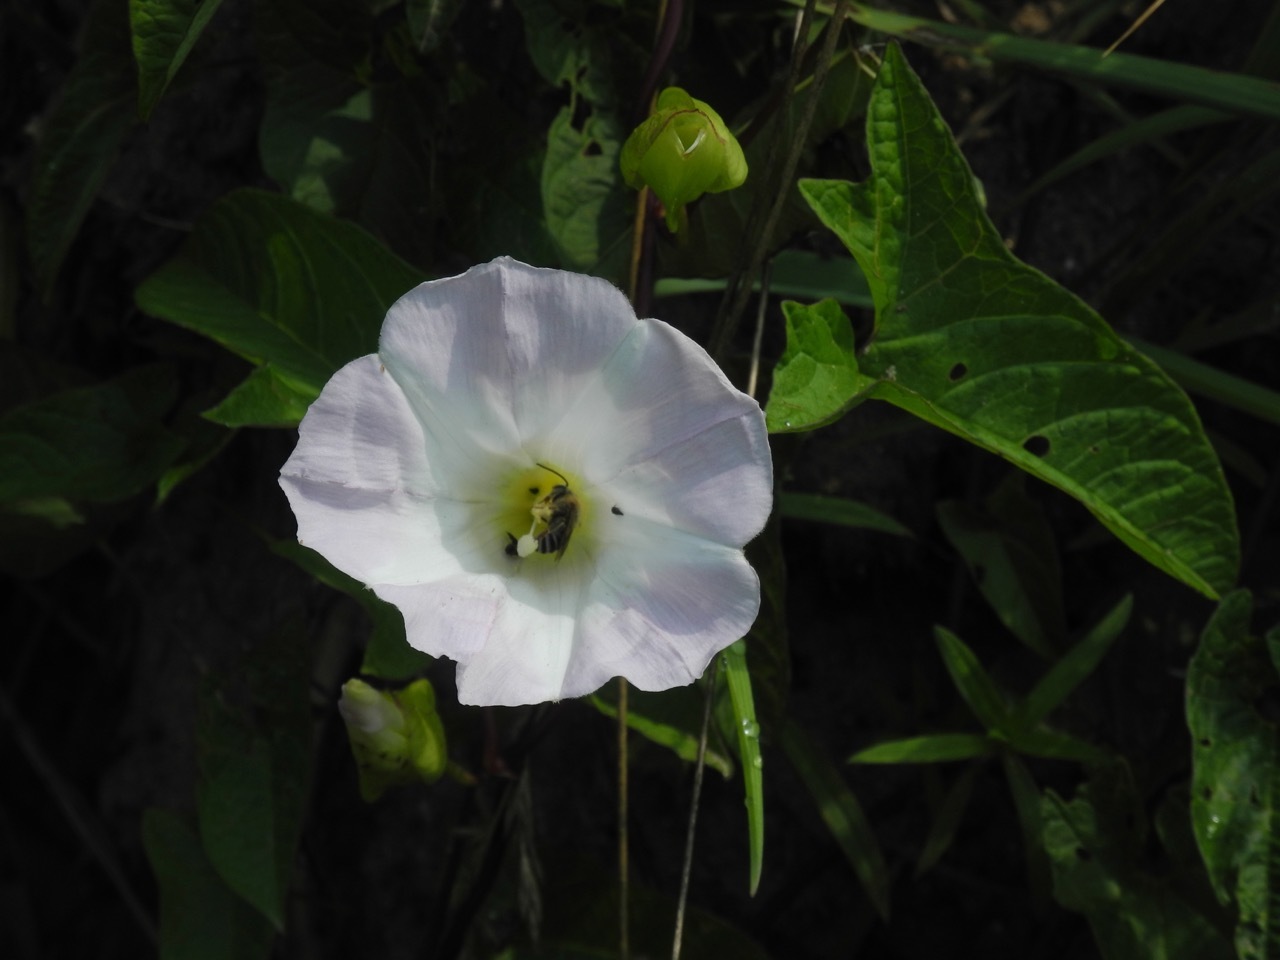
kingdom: Plantae
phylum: Tracheophyta
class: Magnoliopsida
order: Solanales
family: Convolvulaceae
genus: Calystegia
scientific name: Calystegia sepium
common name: Hedge bindweed
